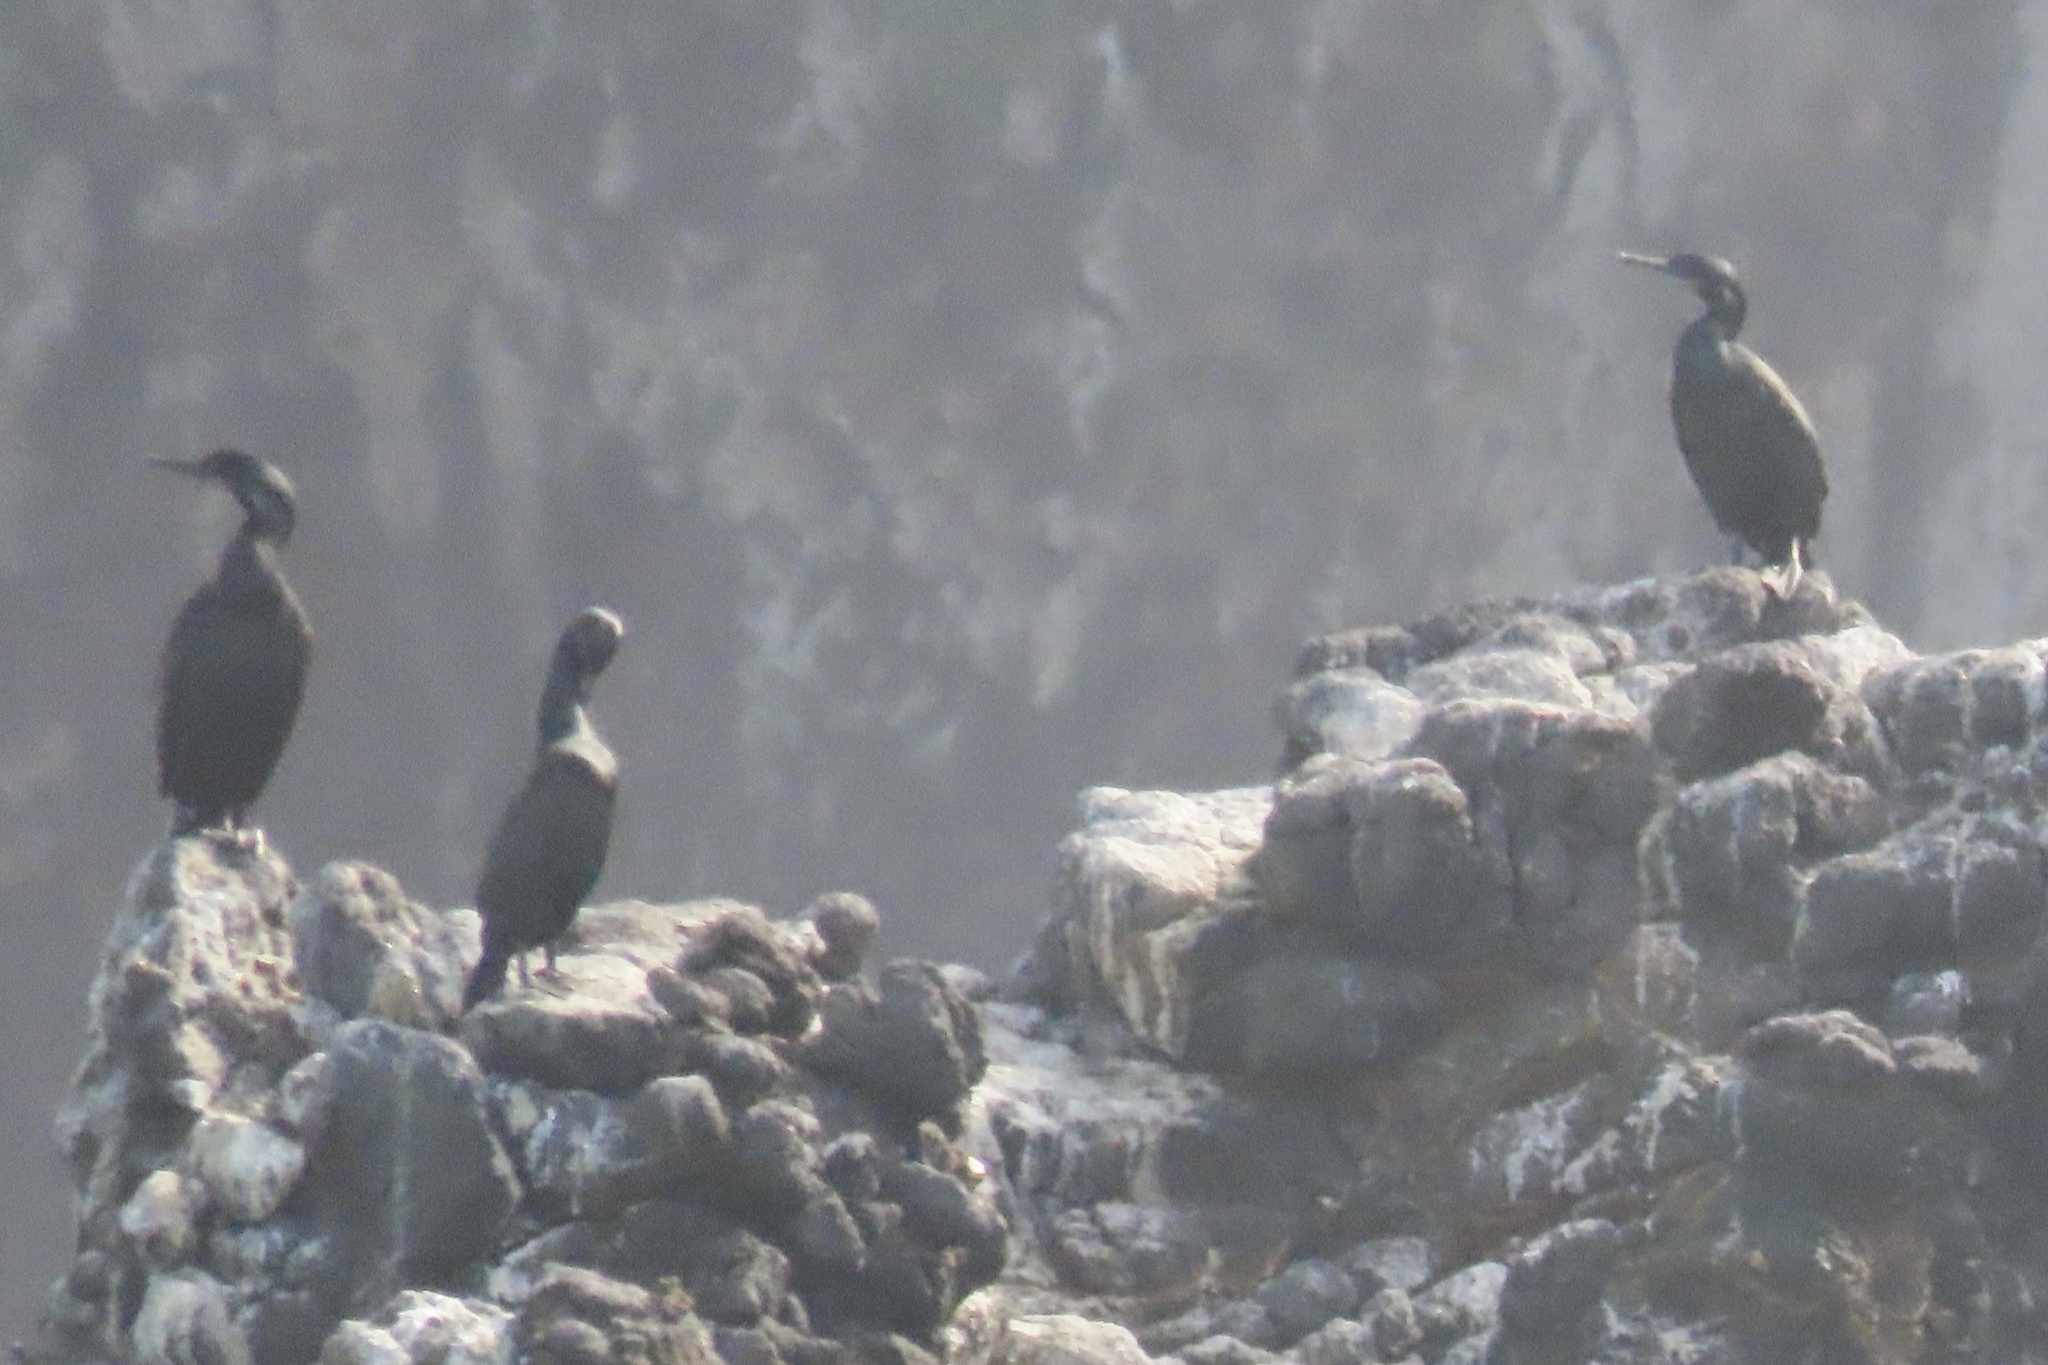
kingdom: Animalia
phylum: Chordata
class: Aves
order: Suliformes
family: Phalacrocoracidae
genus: Urile
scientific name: Urile penicillatus
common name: Brandt's cormorant
